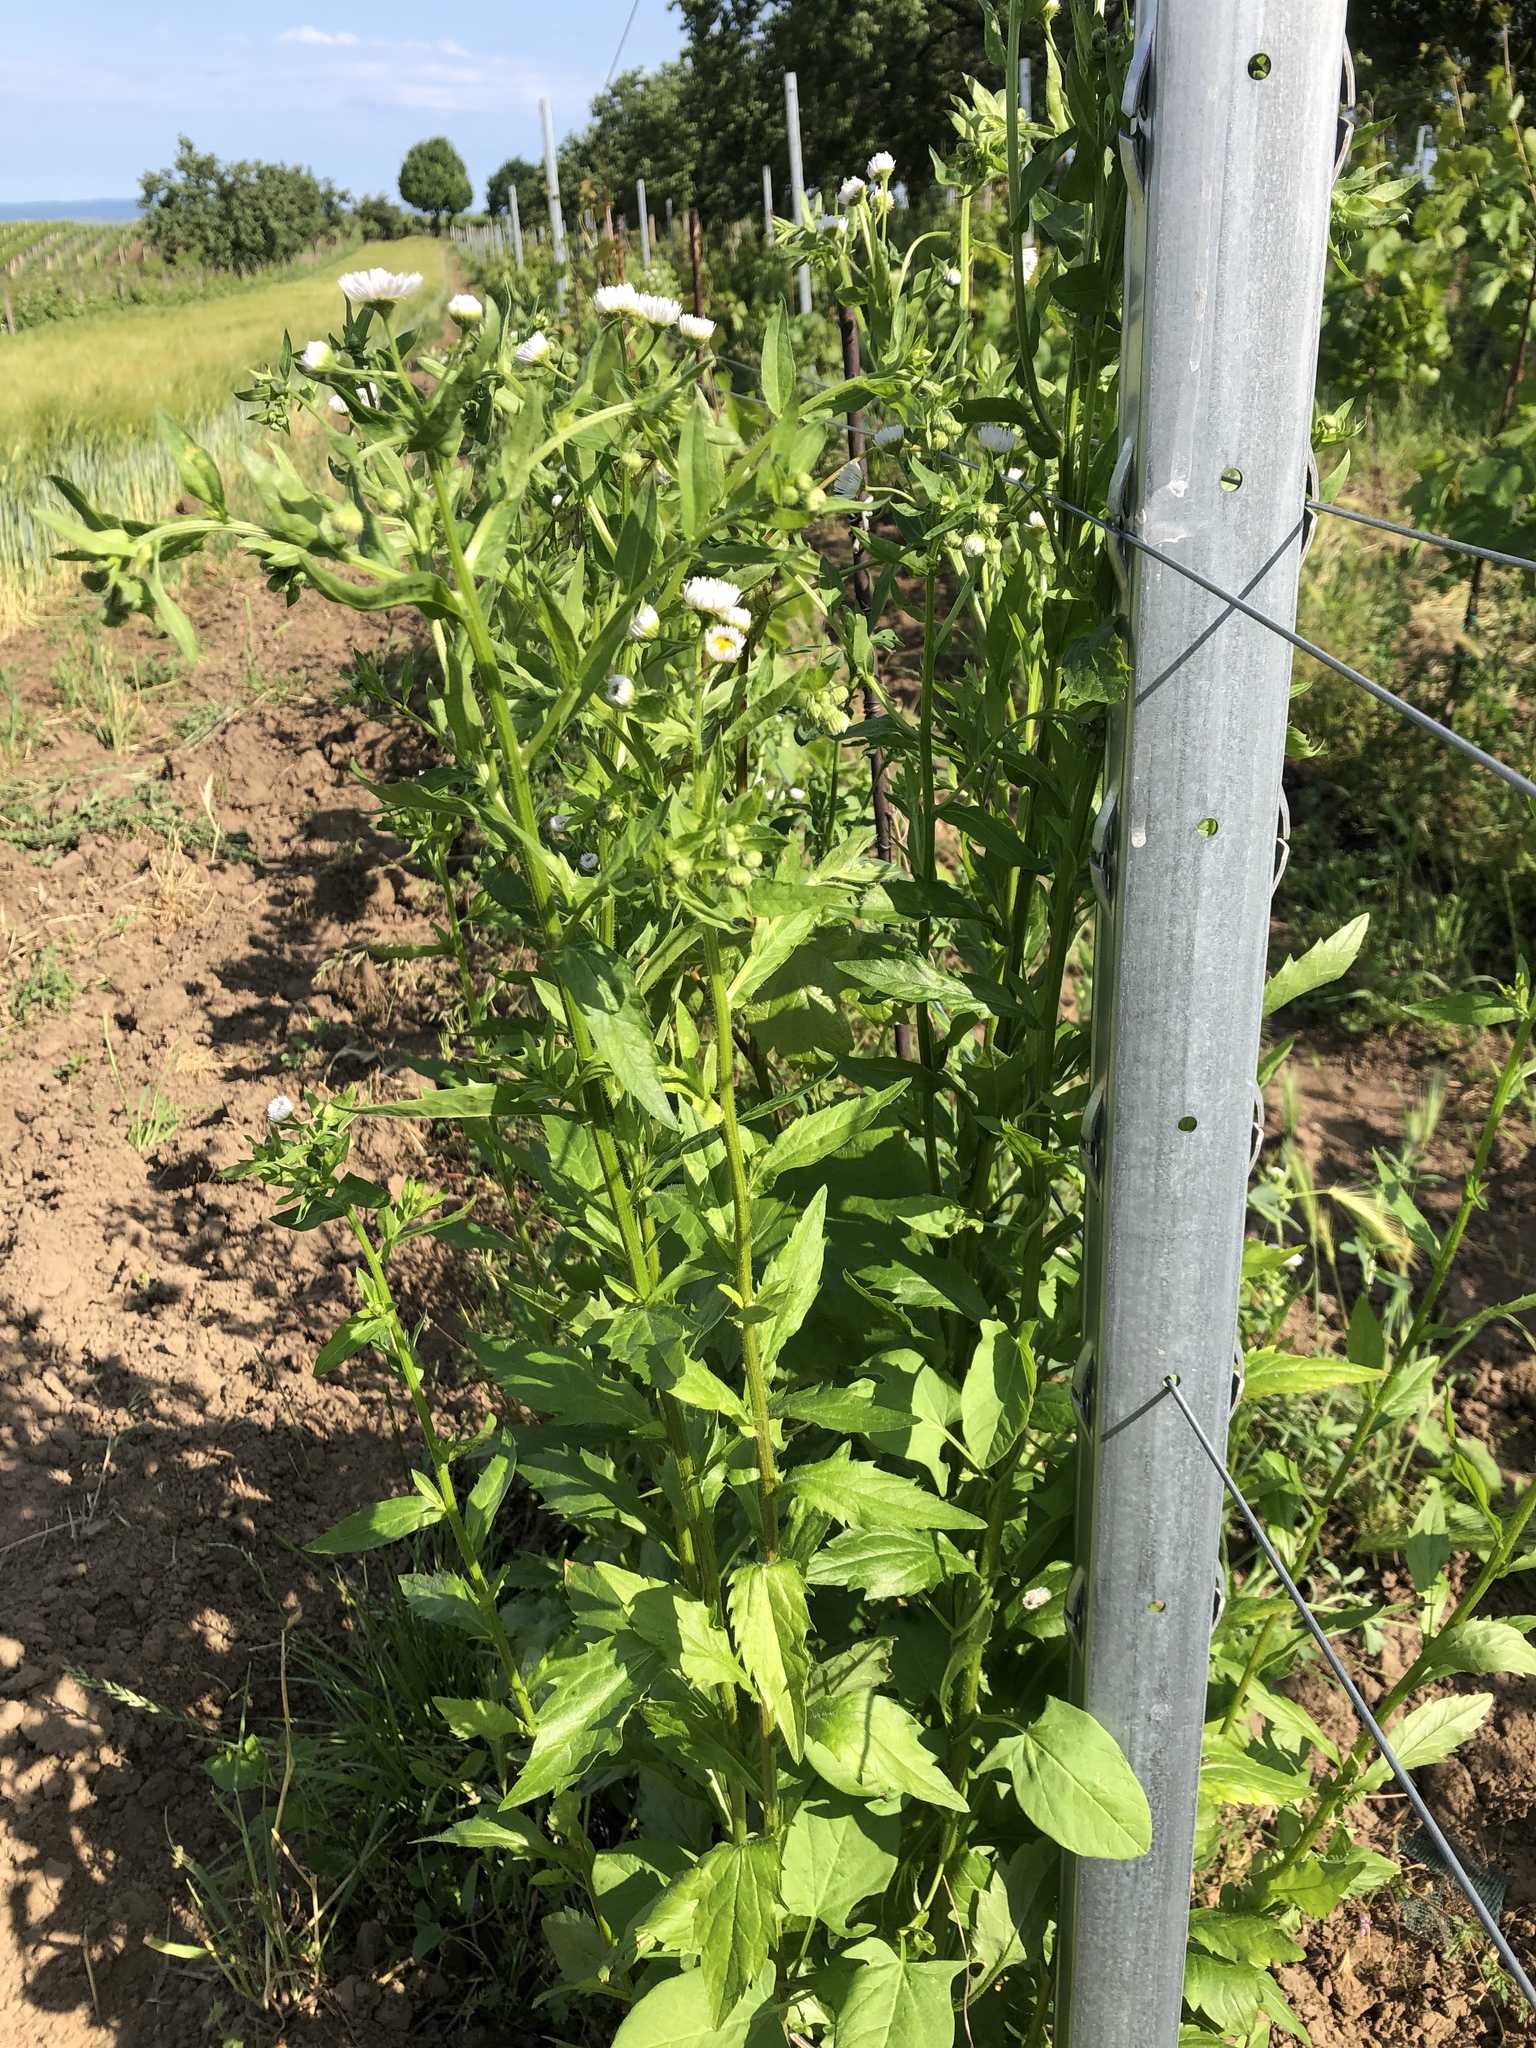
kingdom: Plantae
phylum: Tracheophyta
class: Magnoliopsida
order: Asterales
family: Asteraceae
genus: Erigeron
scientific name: Erigeron annuus
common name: Tall fleabane
